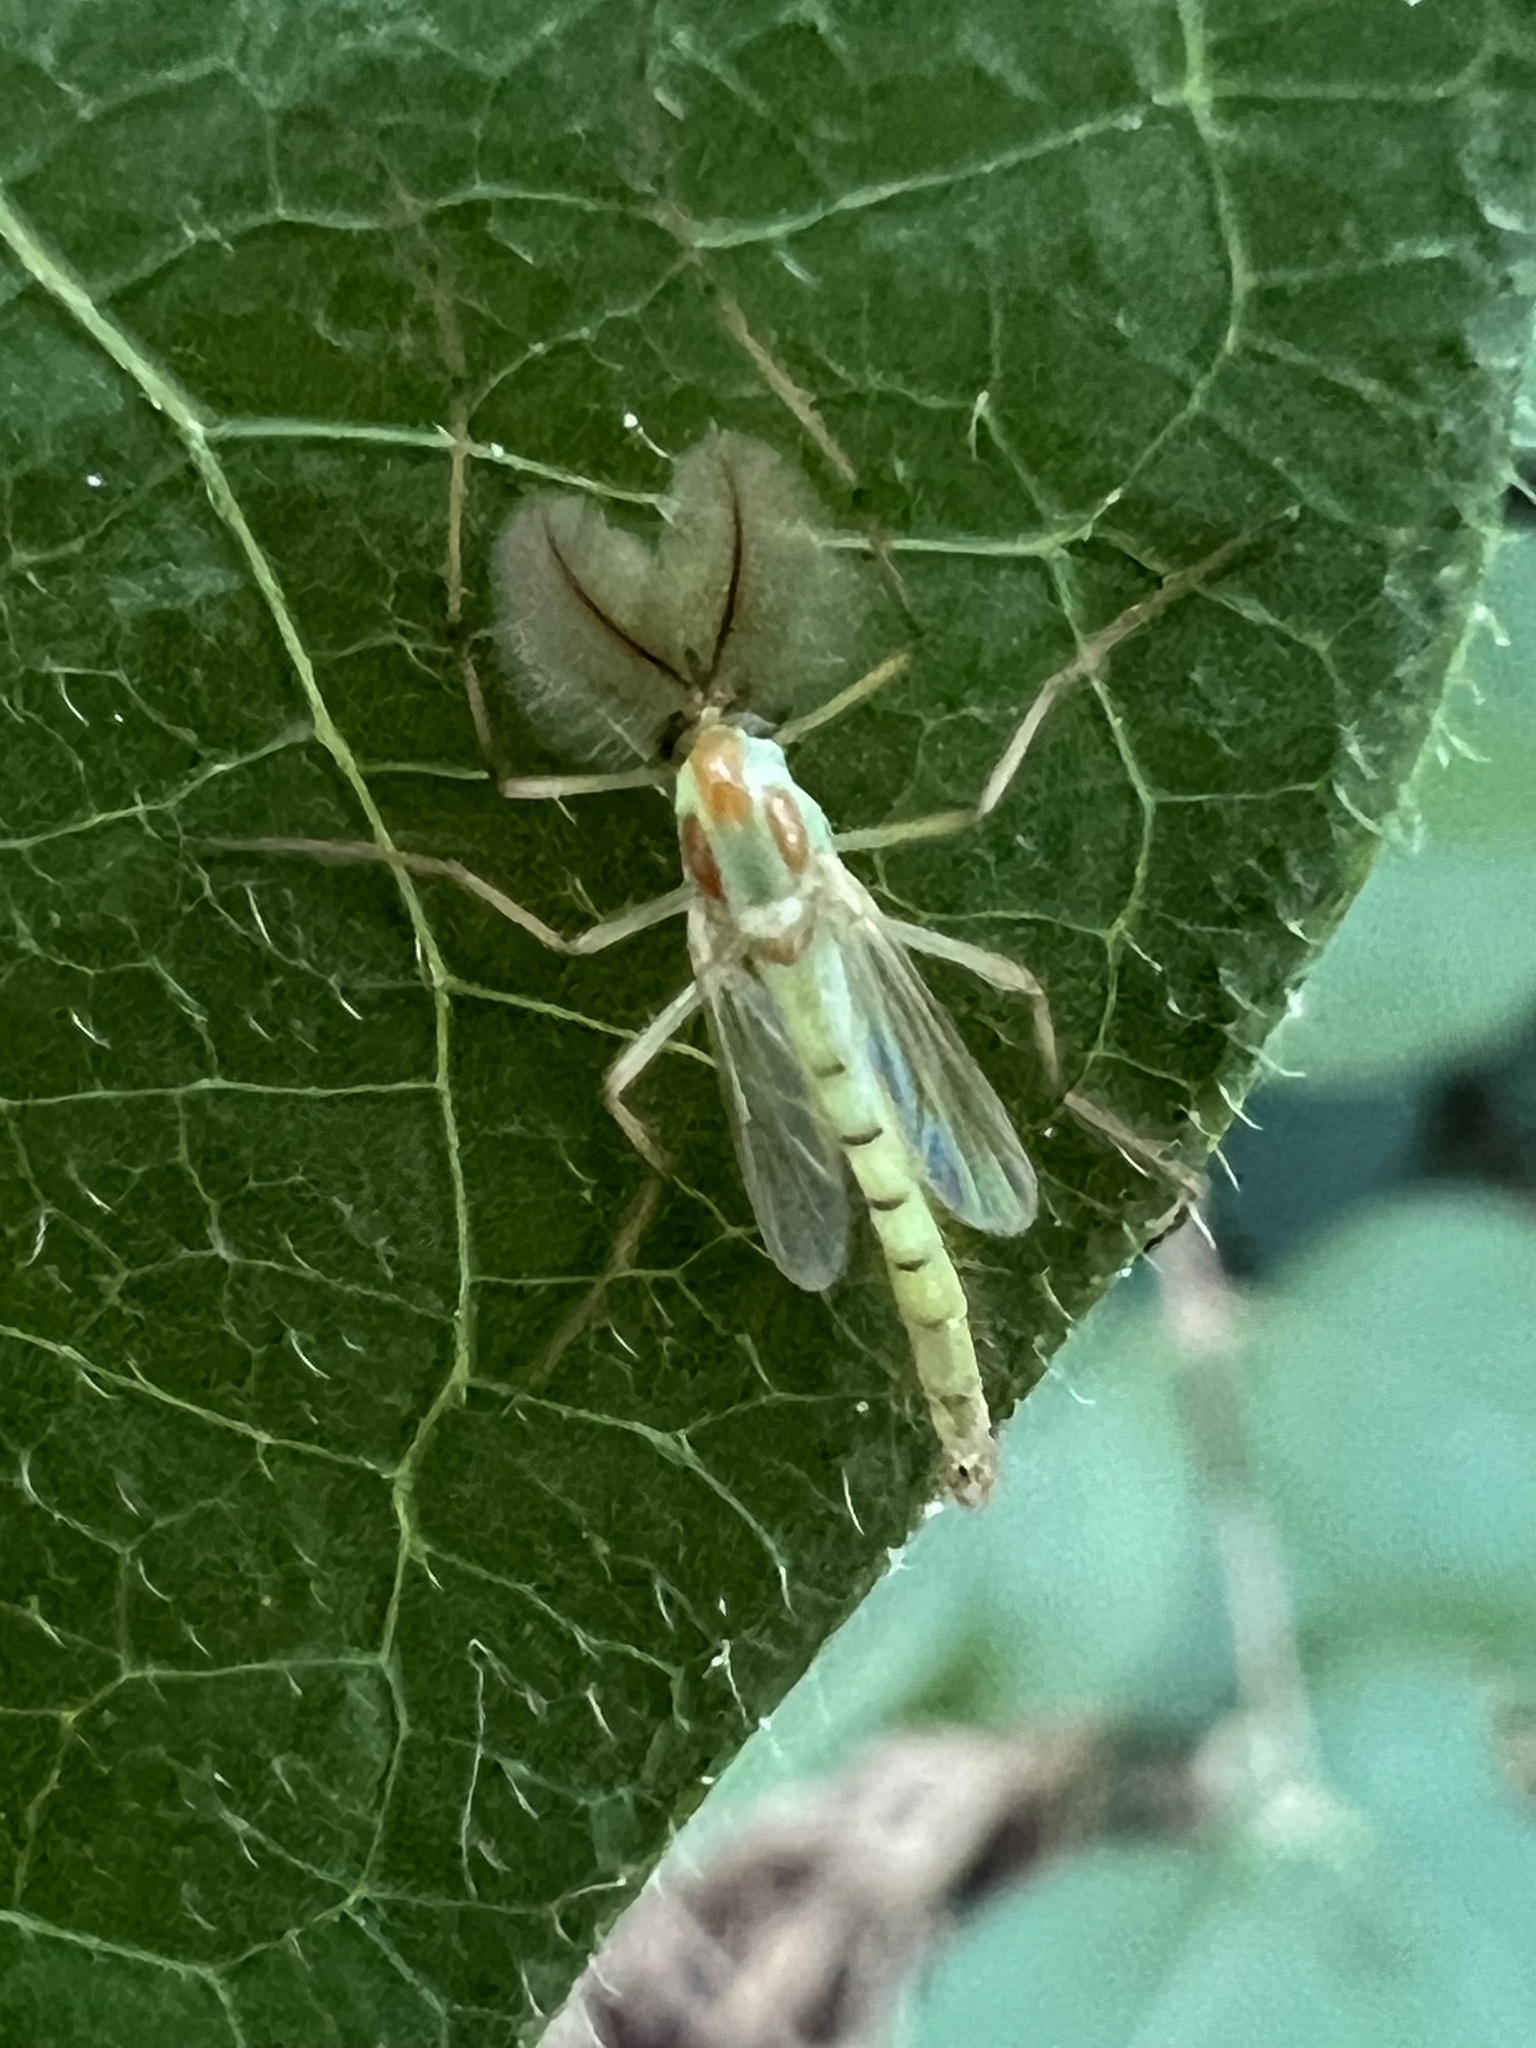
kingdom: Animalia
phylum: Arthropoda
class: Insecta
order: Diptera
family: Chironomidae
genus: Axarus
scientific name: Axarus
